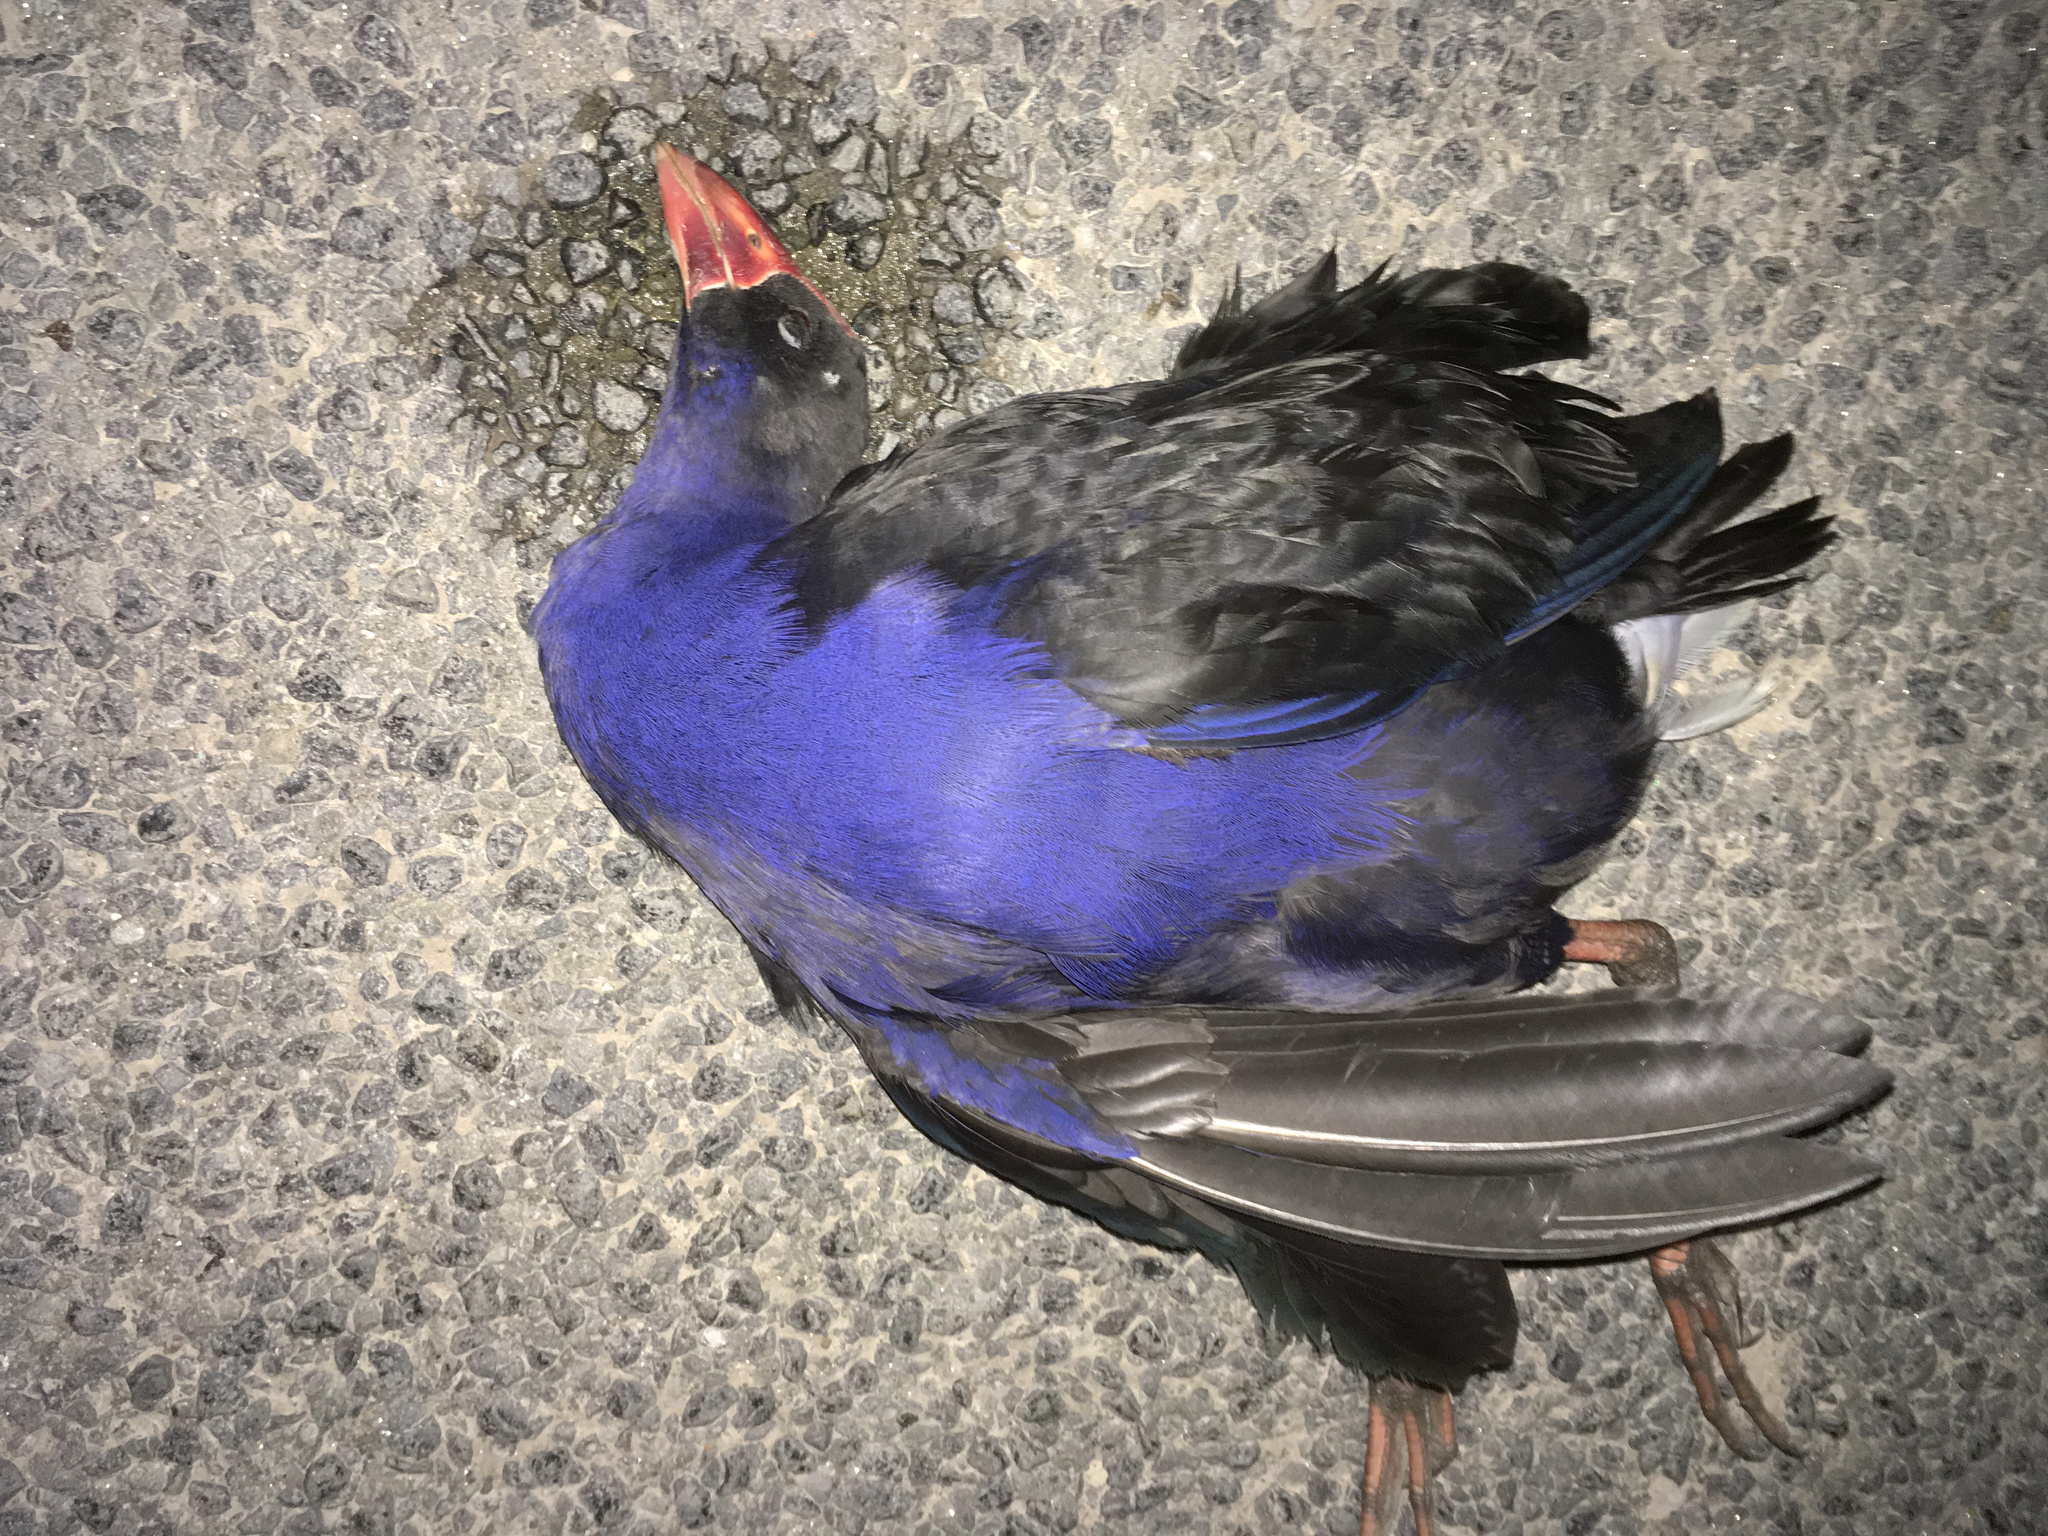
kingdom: Animalia
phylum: Chordata
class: Aves
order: Gruiformes
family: Rallidae
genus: Porphyrio
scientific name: Porphyrio melanotus
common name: Australasian swamphen
